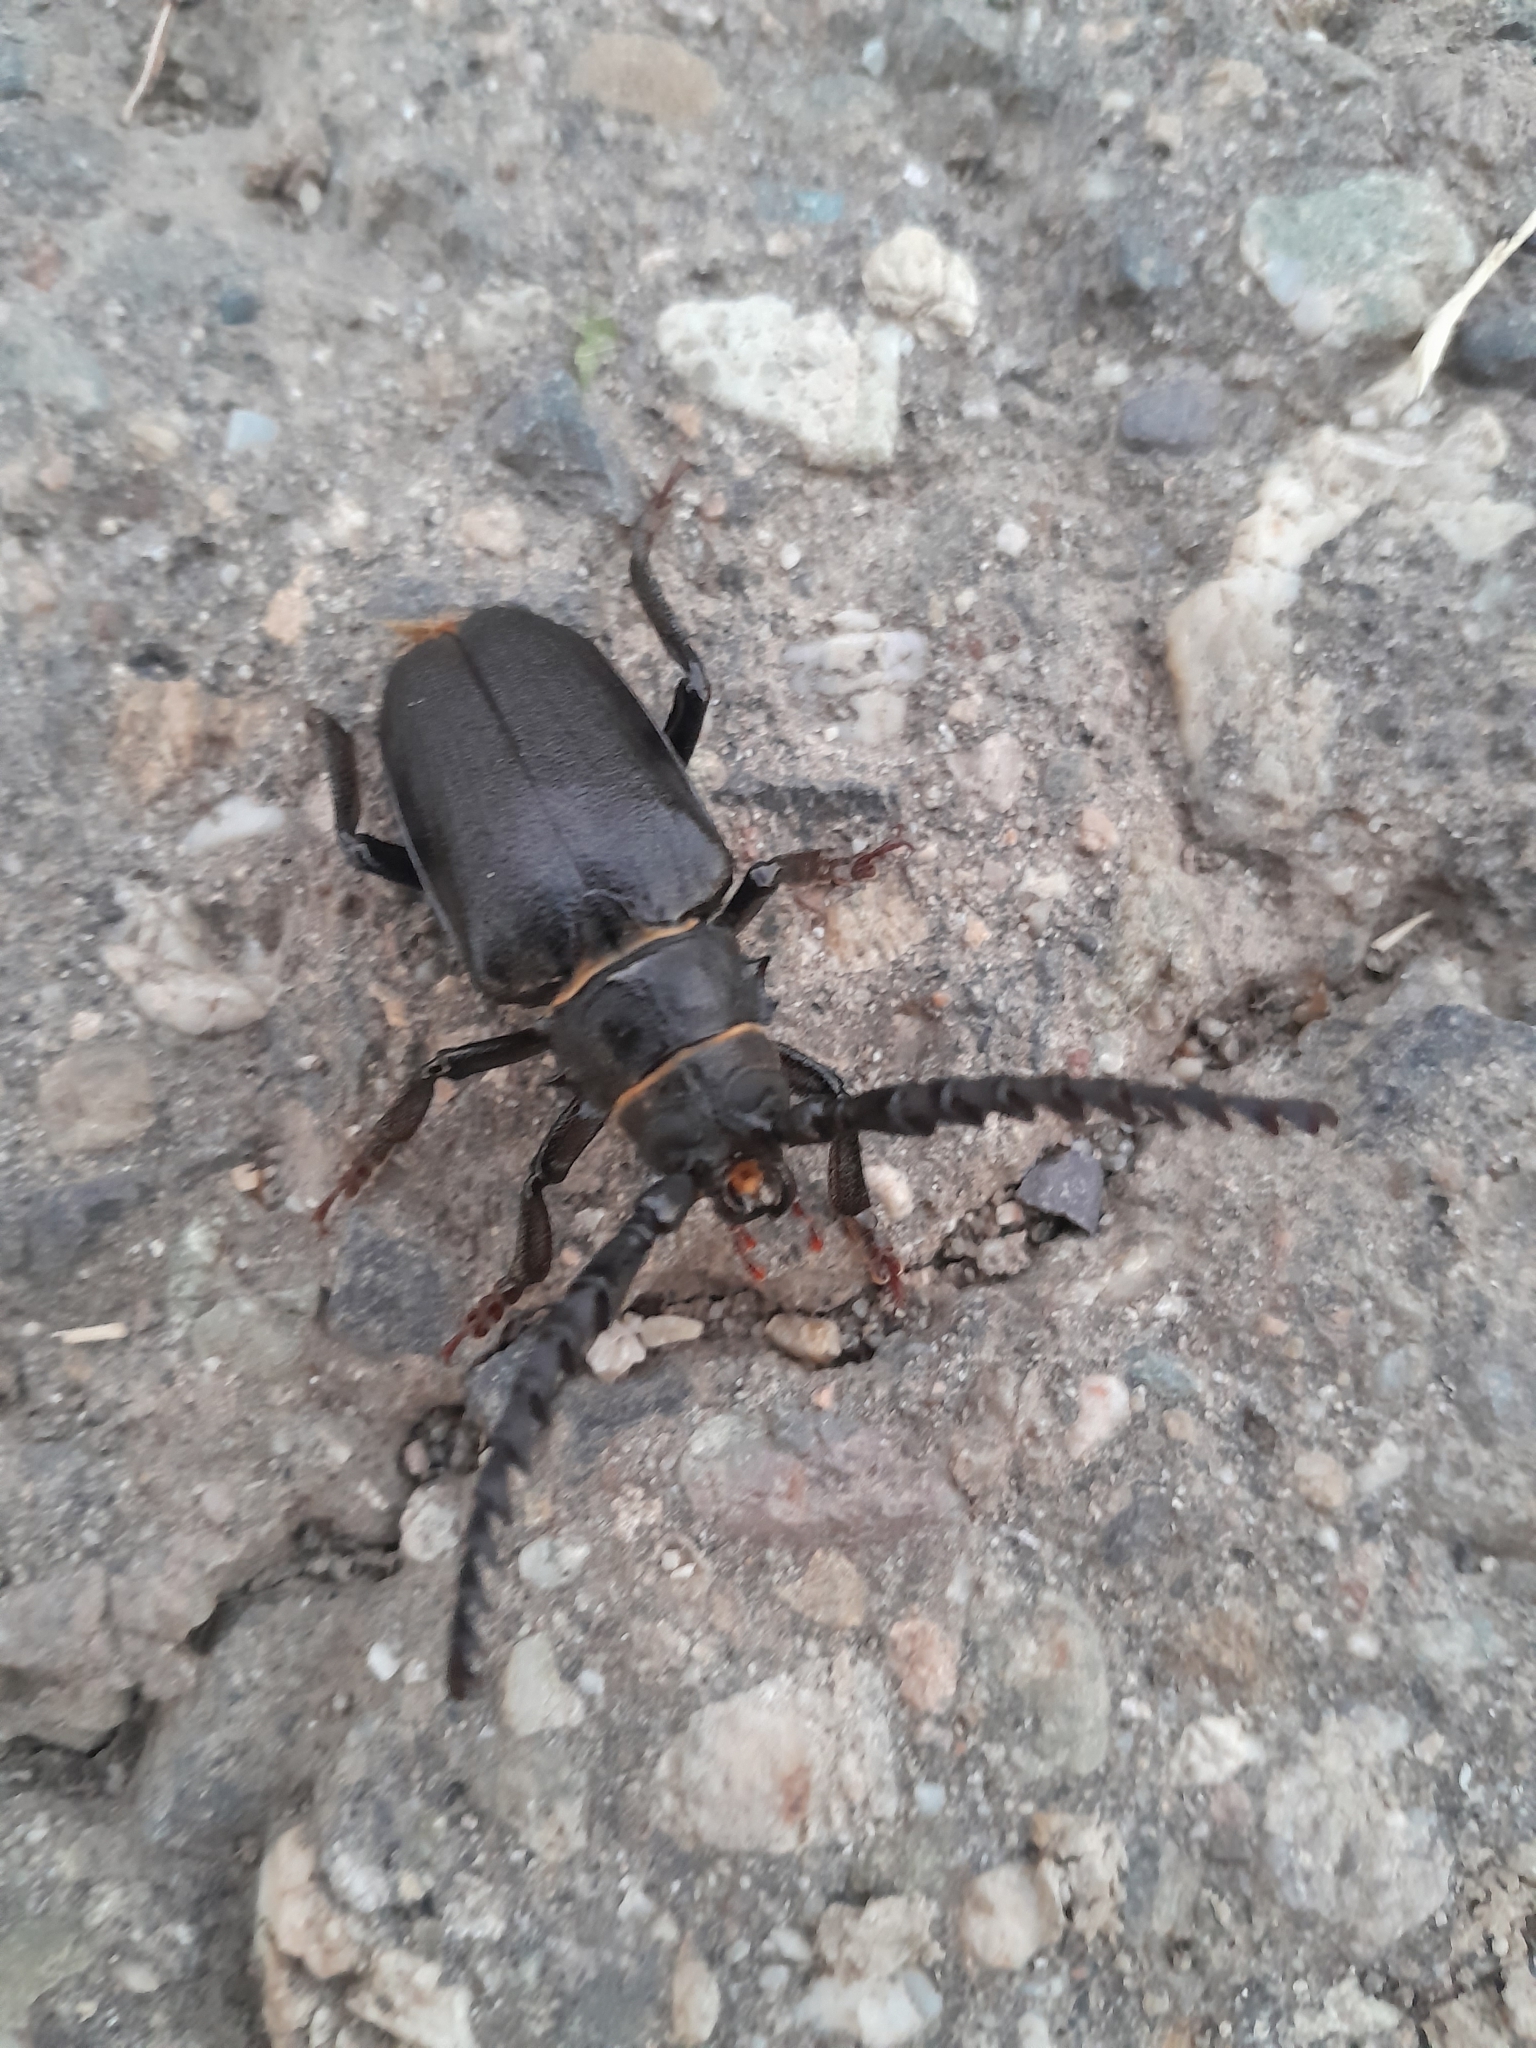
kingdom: Animalia
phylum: Arthropoda
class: Insecta
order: Coleoptera
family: Cerambycidae
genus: Prionus
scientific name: Prionus coriarius
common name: Tanner beetle
